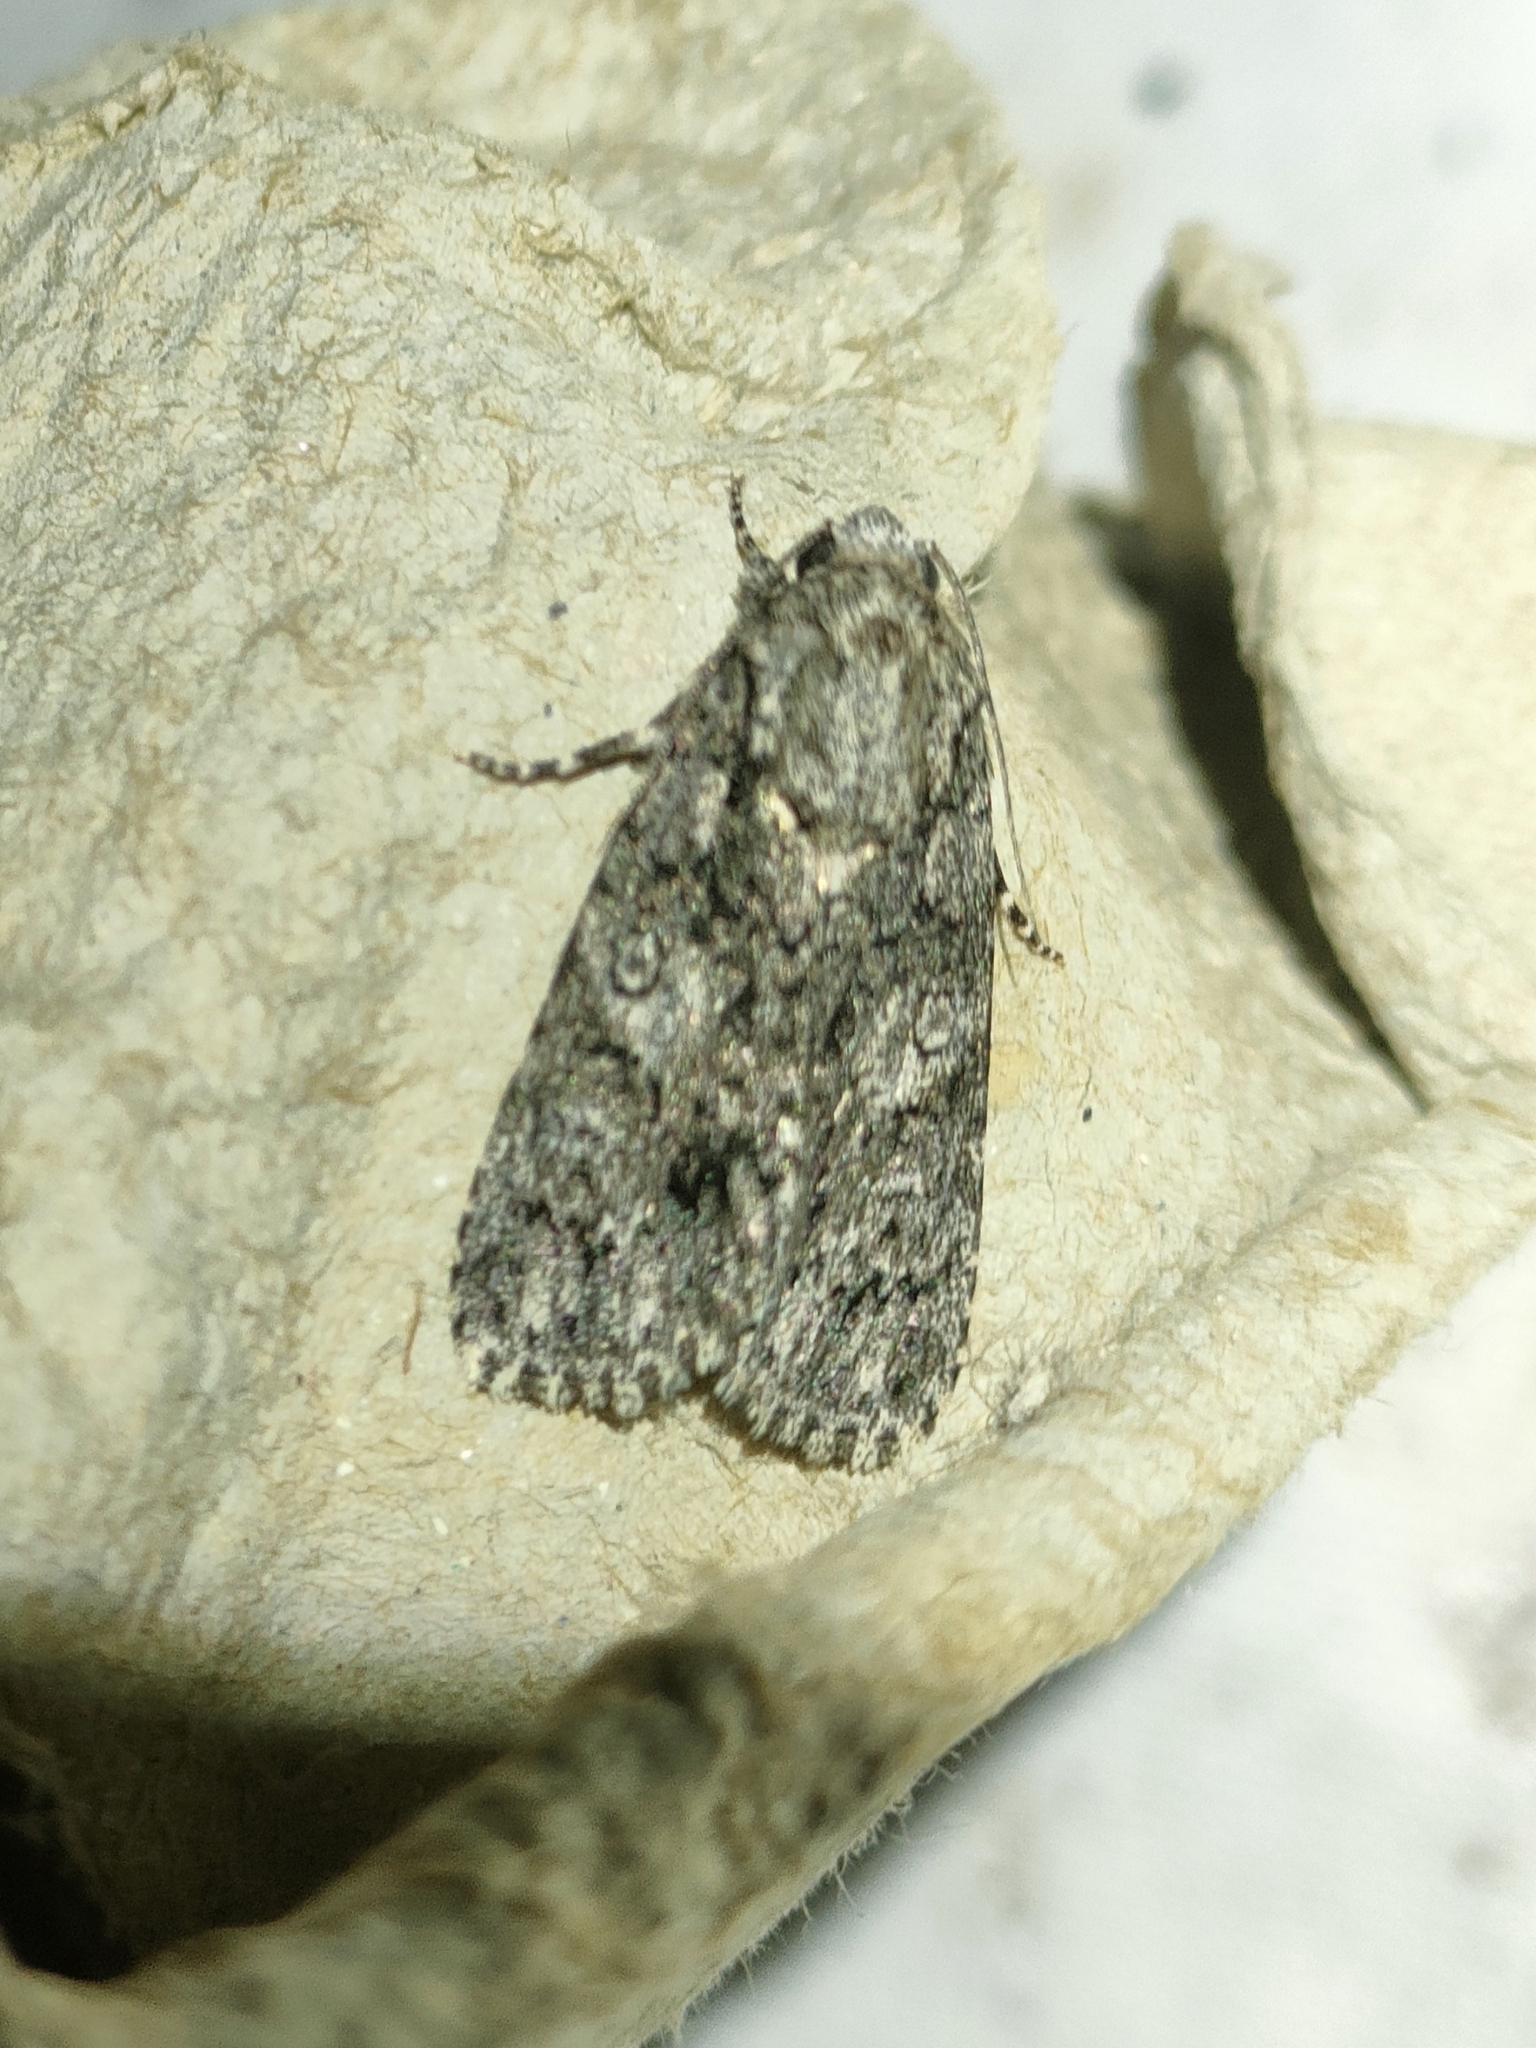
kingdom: Animalia
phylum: Arthropoda
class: Insecta
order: Lepidoptera
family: Noctuidae
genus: Acronicta
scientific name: Acronicta rumicis
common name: Knot grass
